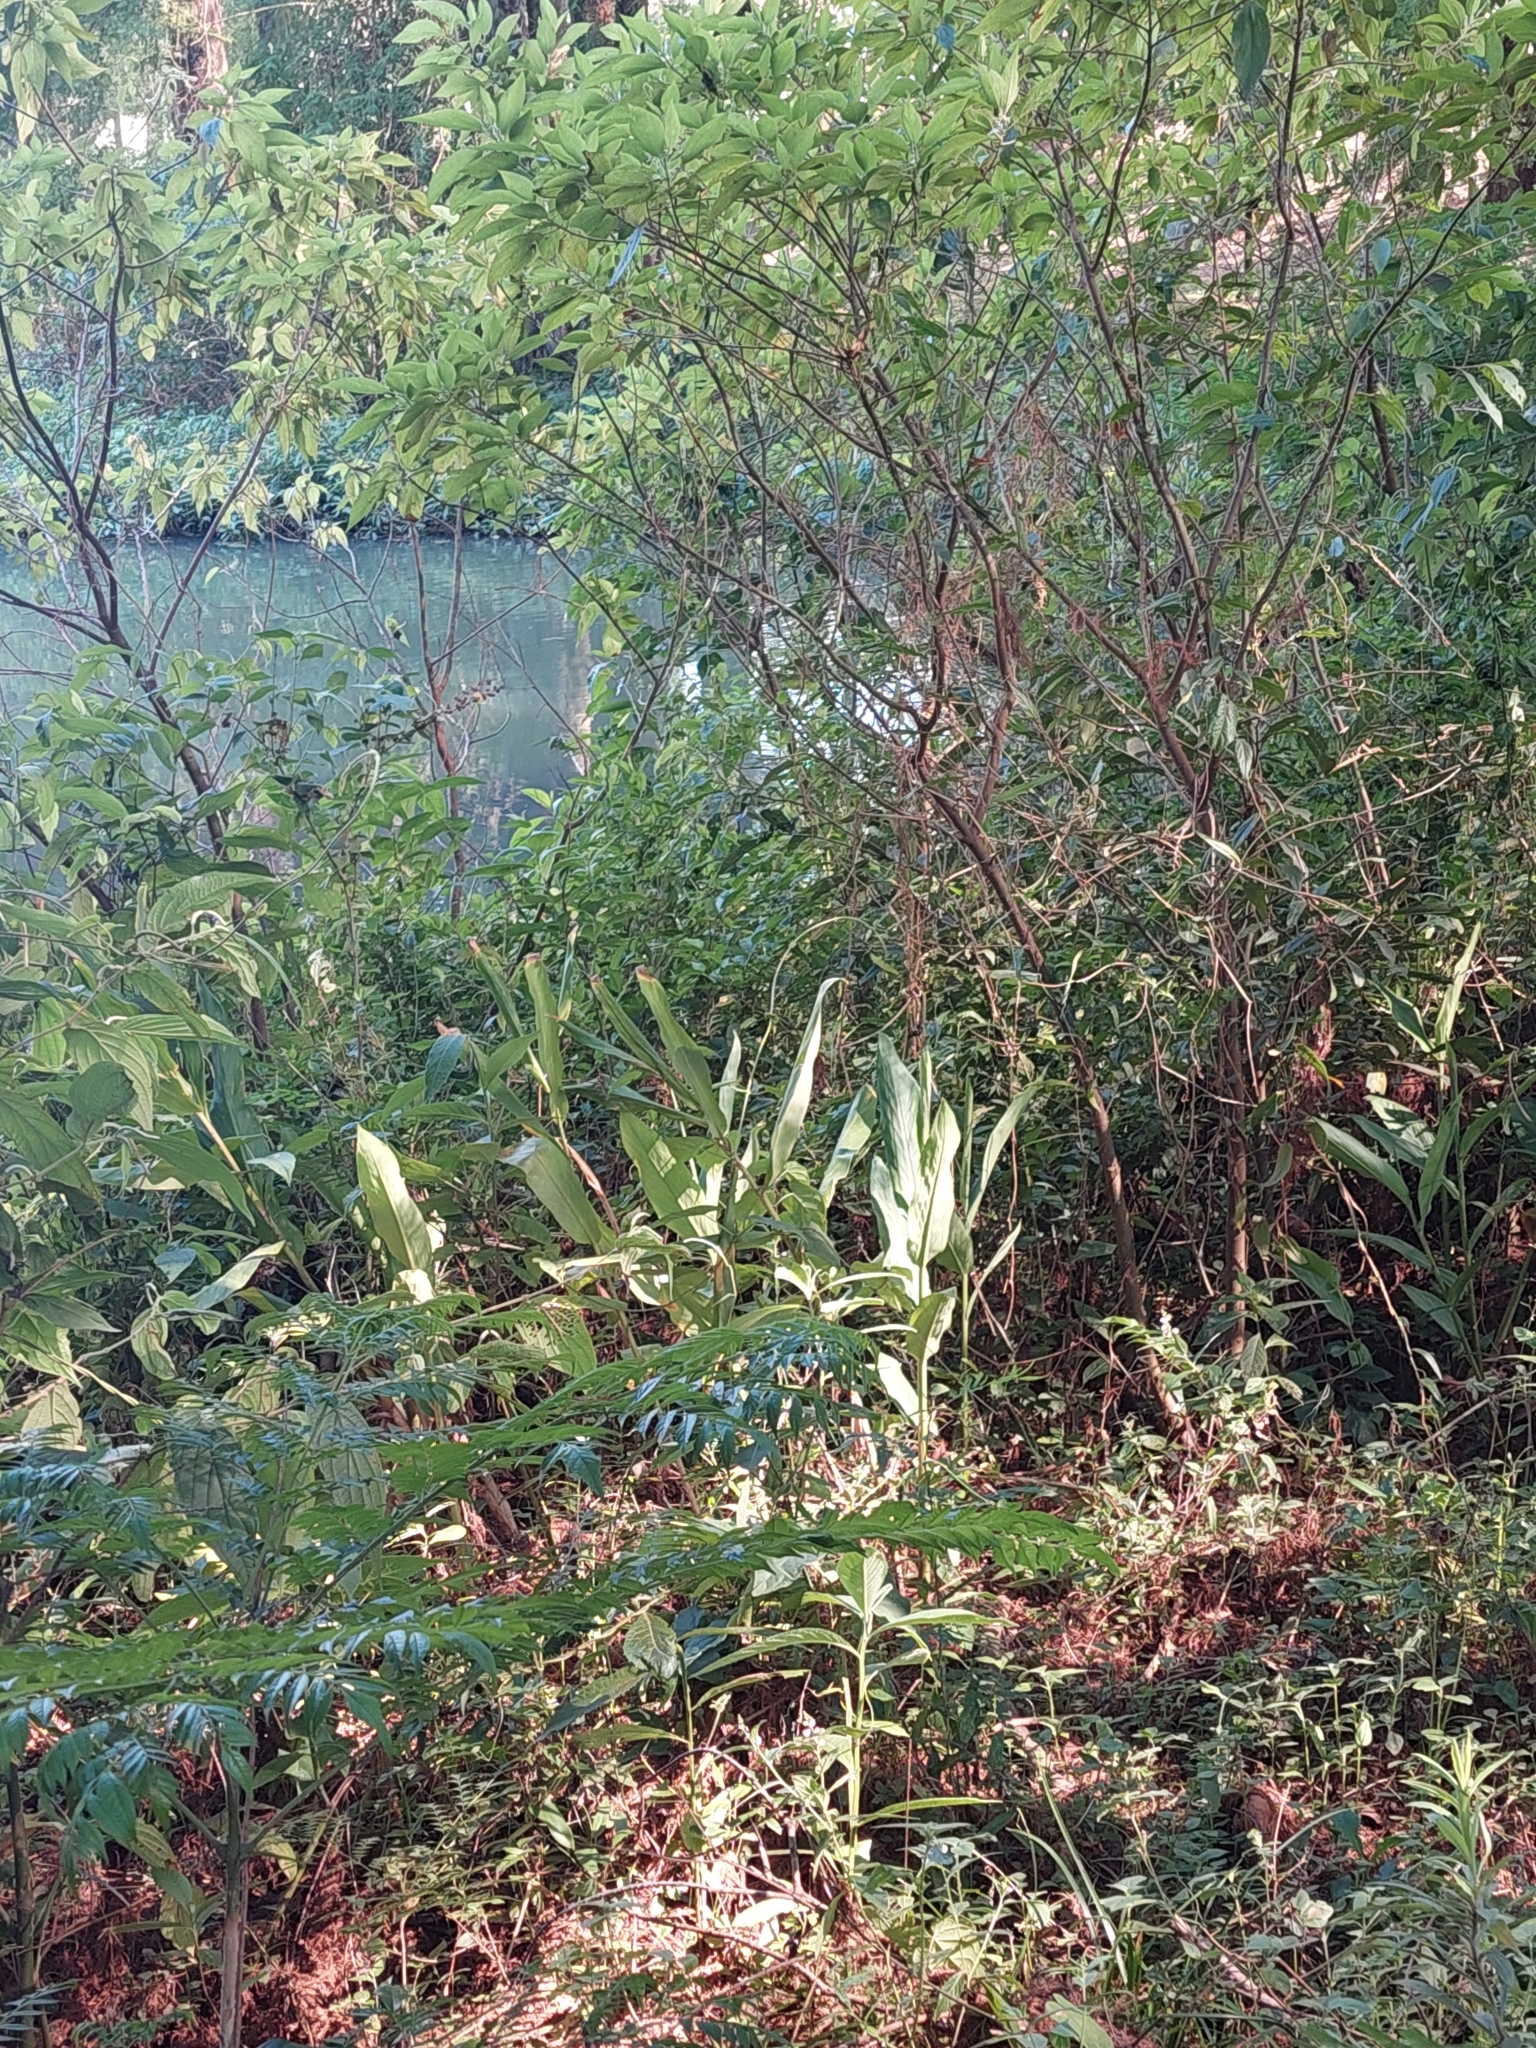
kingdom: Plantae
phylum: Tracheophyta
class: Liliopsida
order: Zingiberales
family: Zingiberaceae
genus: Hedychium
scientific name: Hedychium coronarium
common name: White garland-lily
